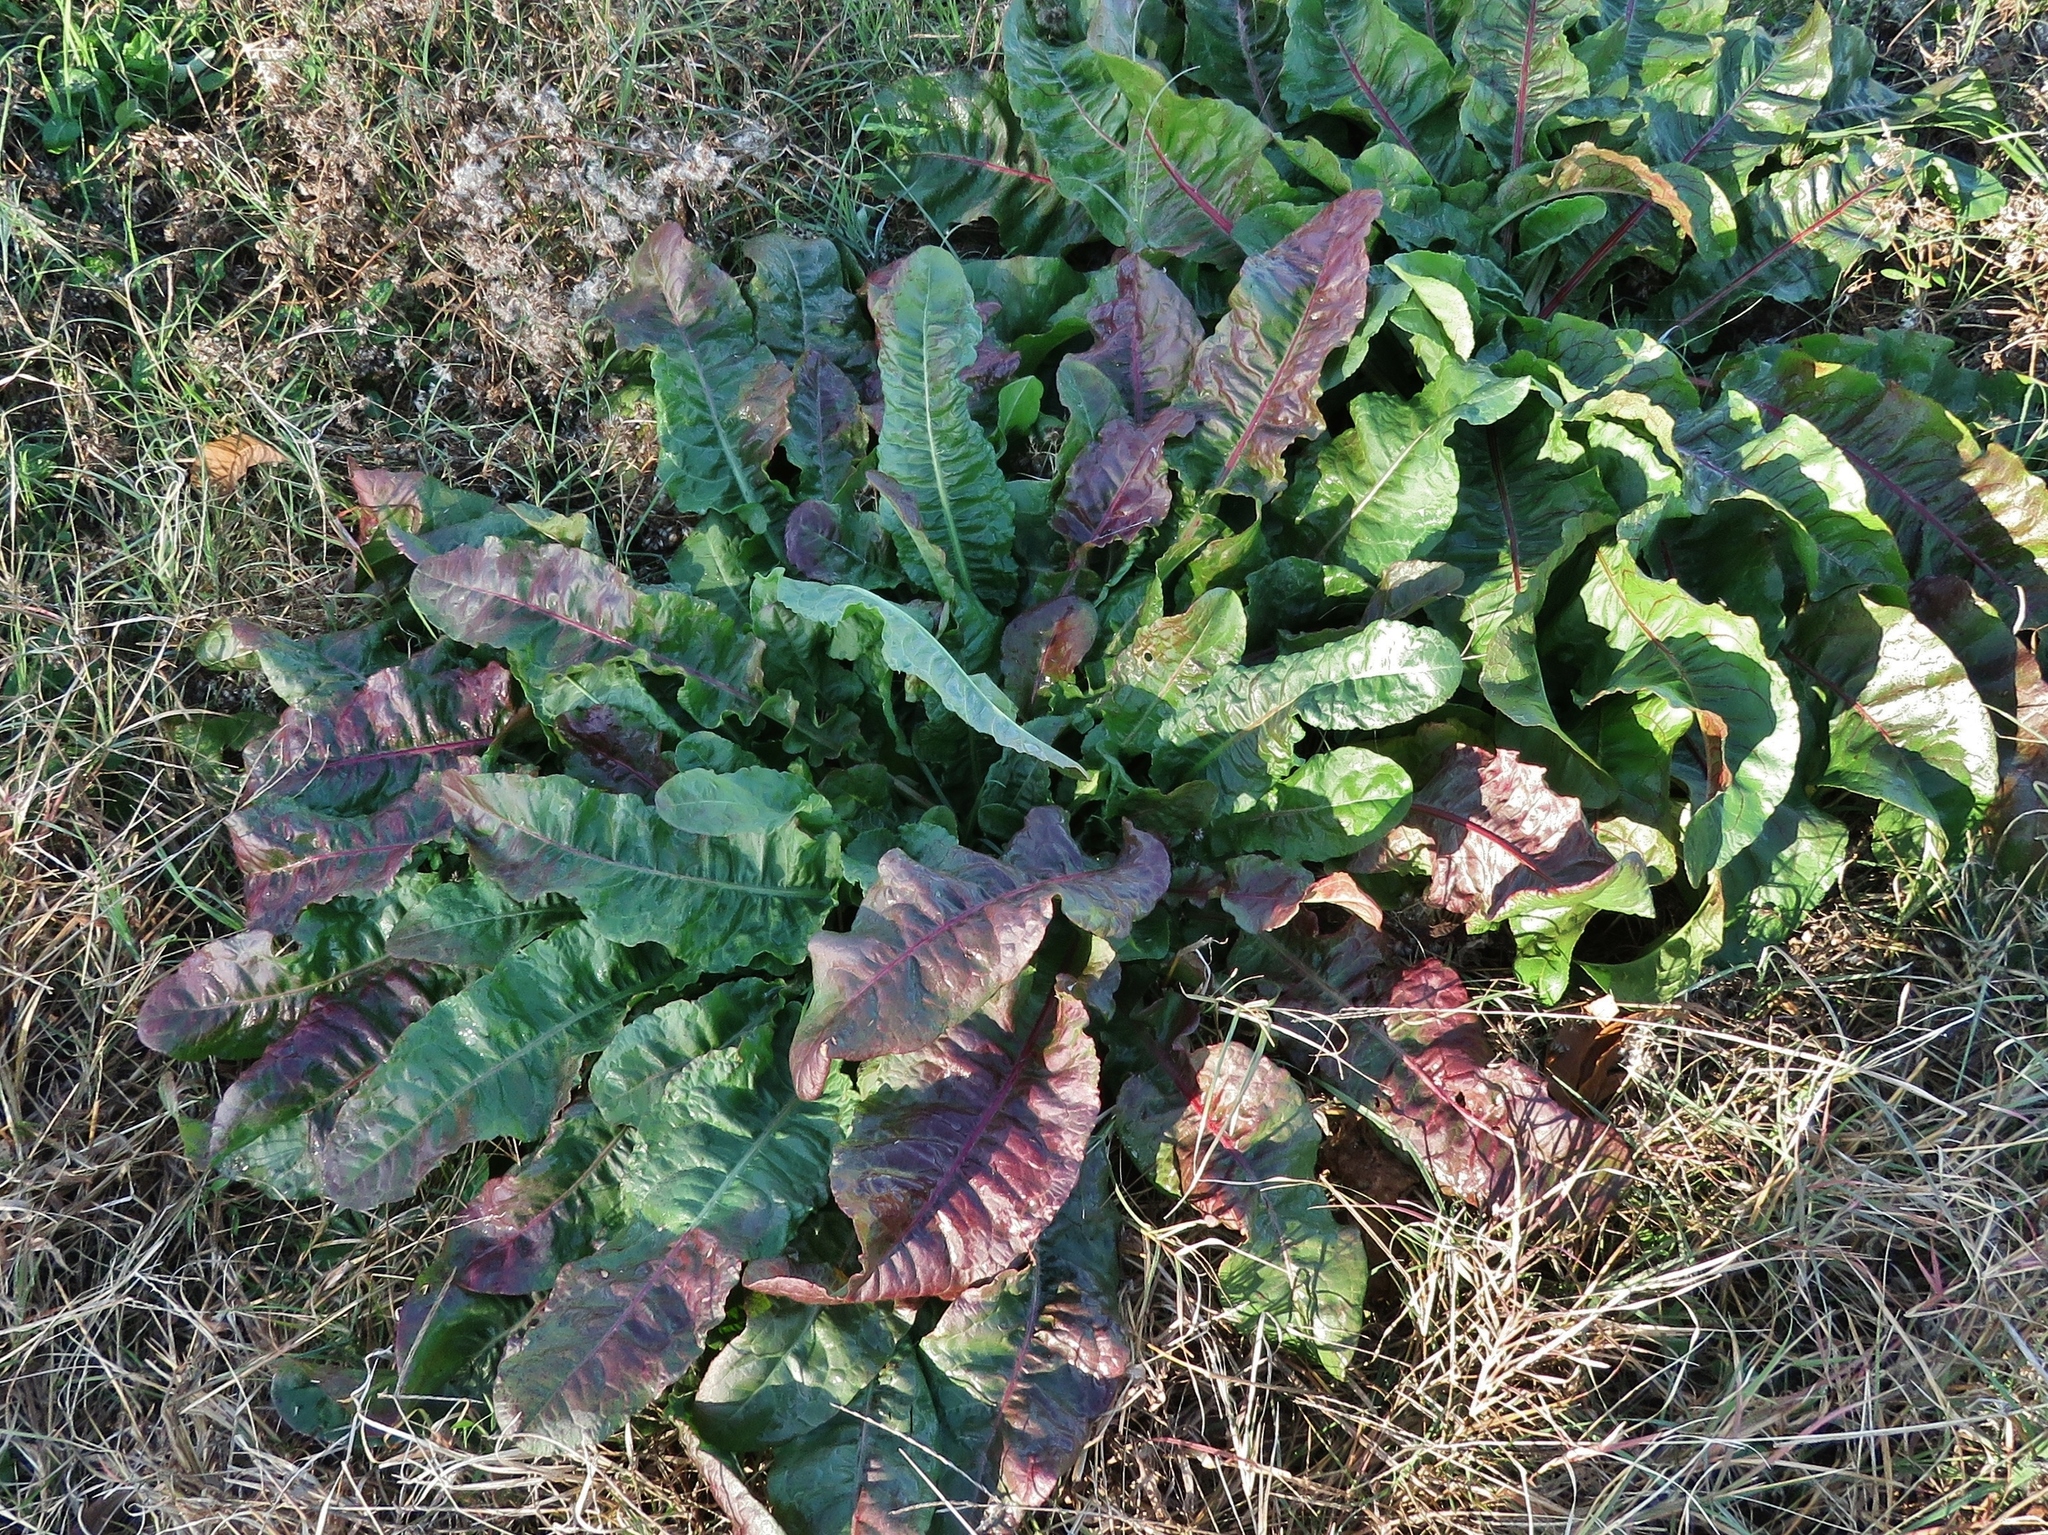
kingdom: Plantae
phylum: Tracheophyta
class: Magnoliopsida
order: Caryophyllales
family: Polygonaceae
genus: Rumex
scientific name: Rumex crispus
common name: Curled dock
